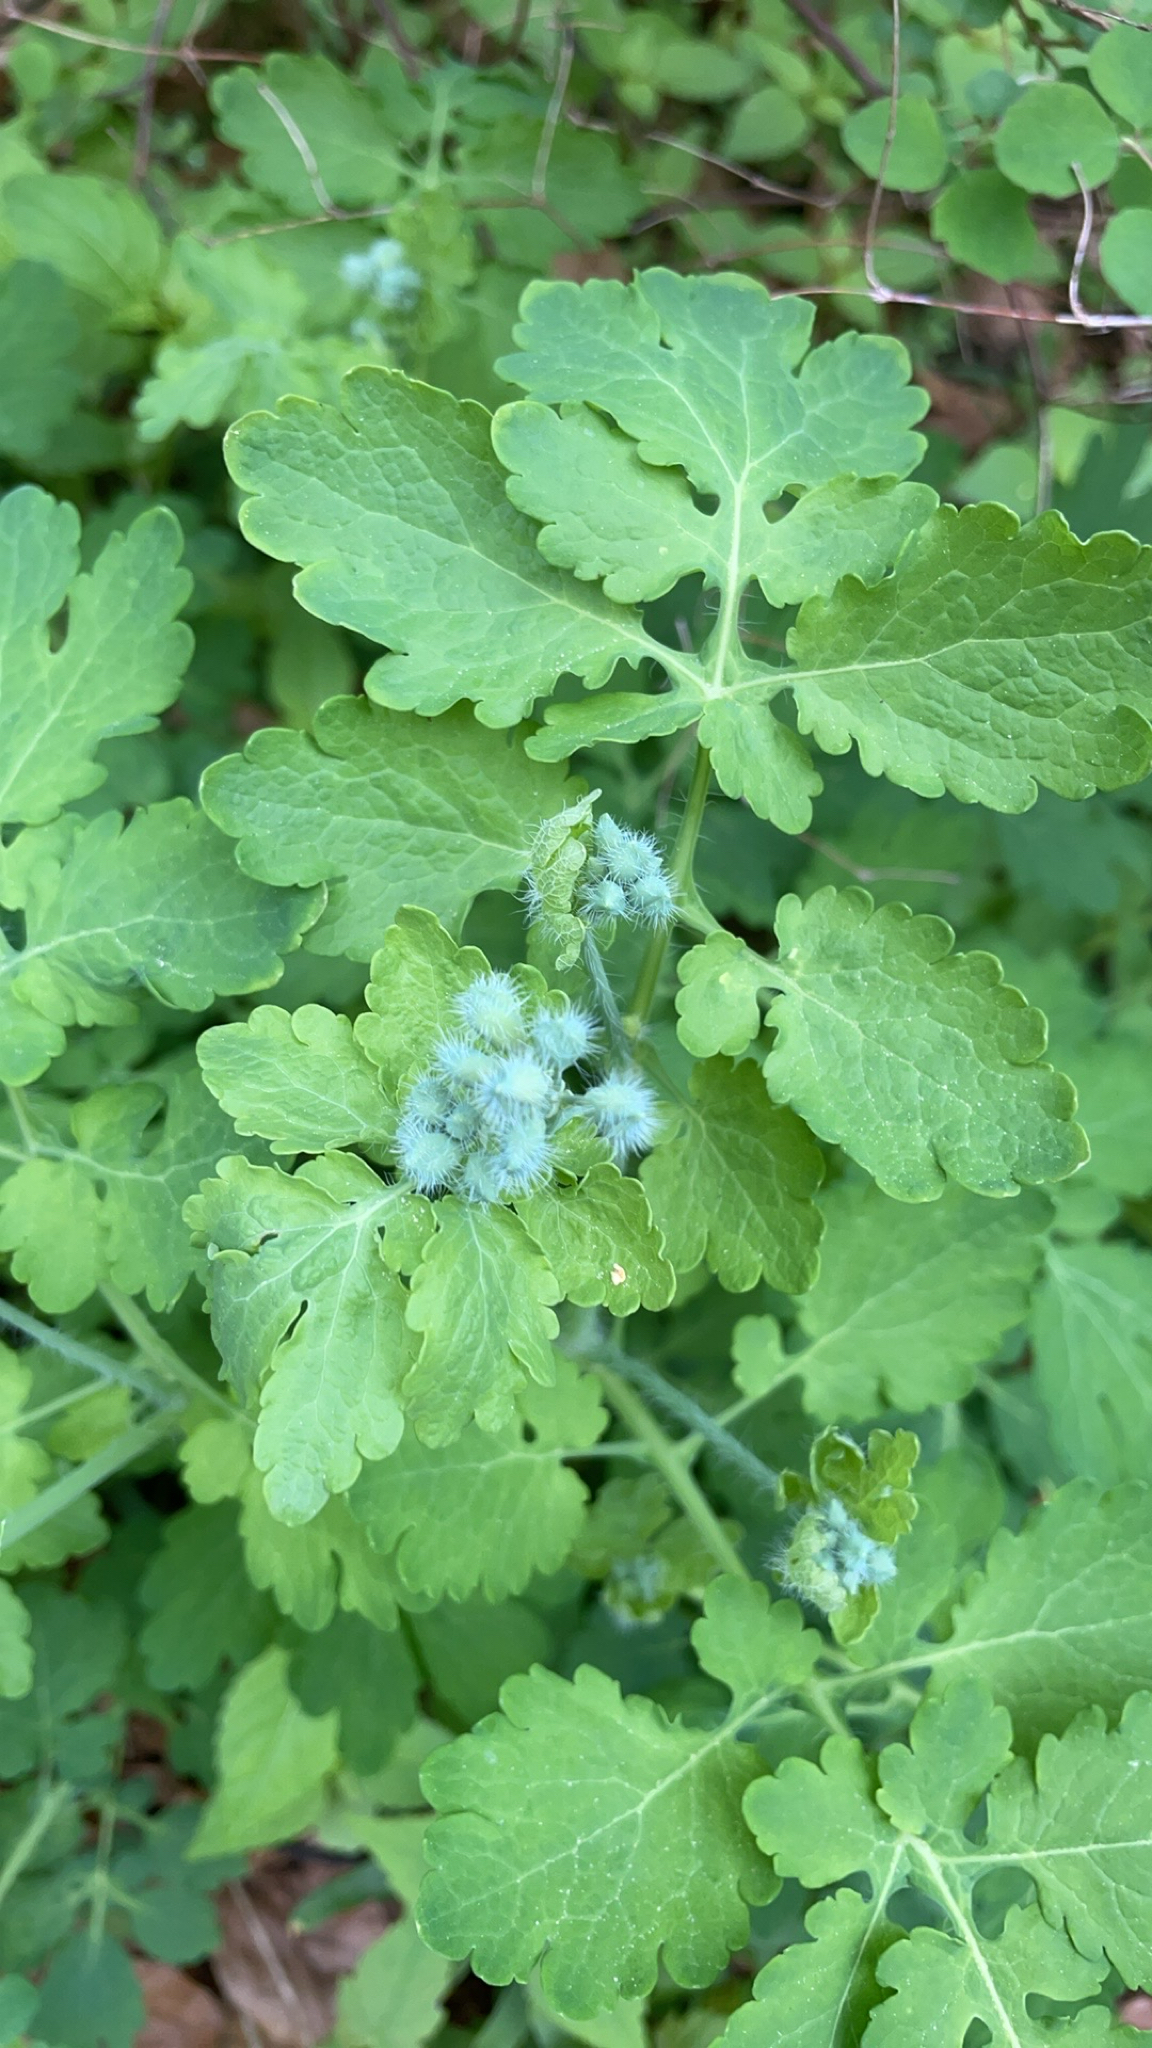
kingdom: Plantae
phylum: Tracheophyta
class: Magnoliopsida
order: Ranunculales
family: Papaveraceae
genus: Chelidonium
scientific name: Chelidonium majus
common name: Greater celandine
